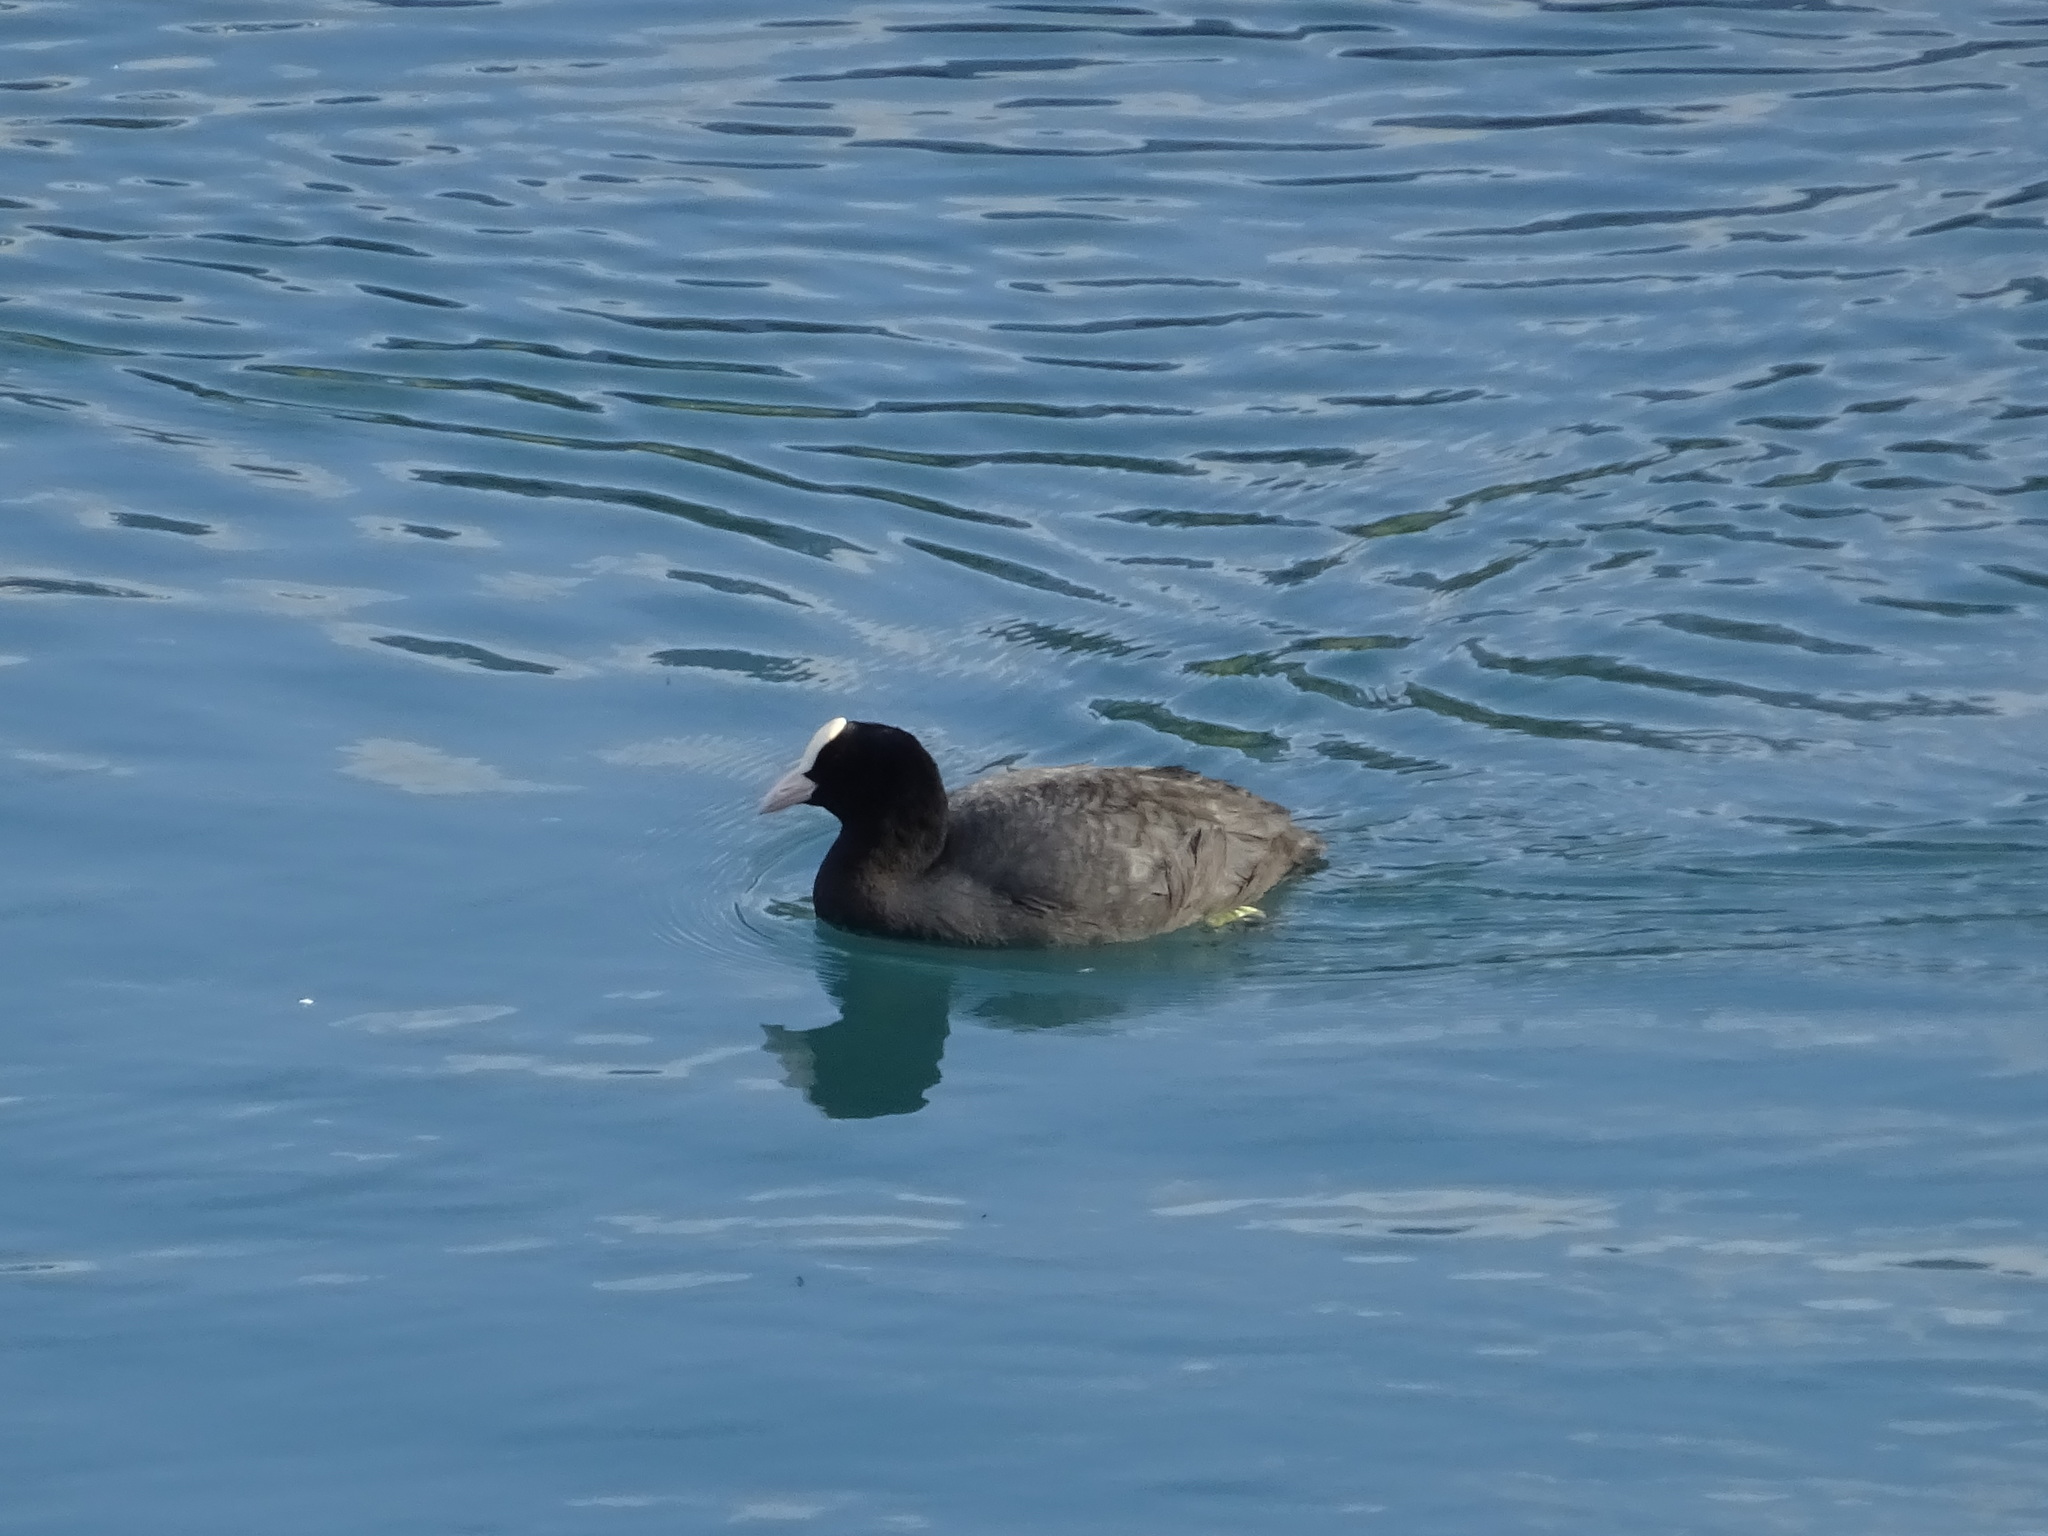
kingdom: Animalia
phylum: Chordata
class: Aves
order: Gruiformes
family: Rallidae
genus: Fulica
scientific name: Fulica atra
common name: Eurasian coot
